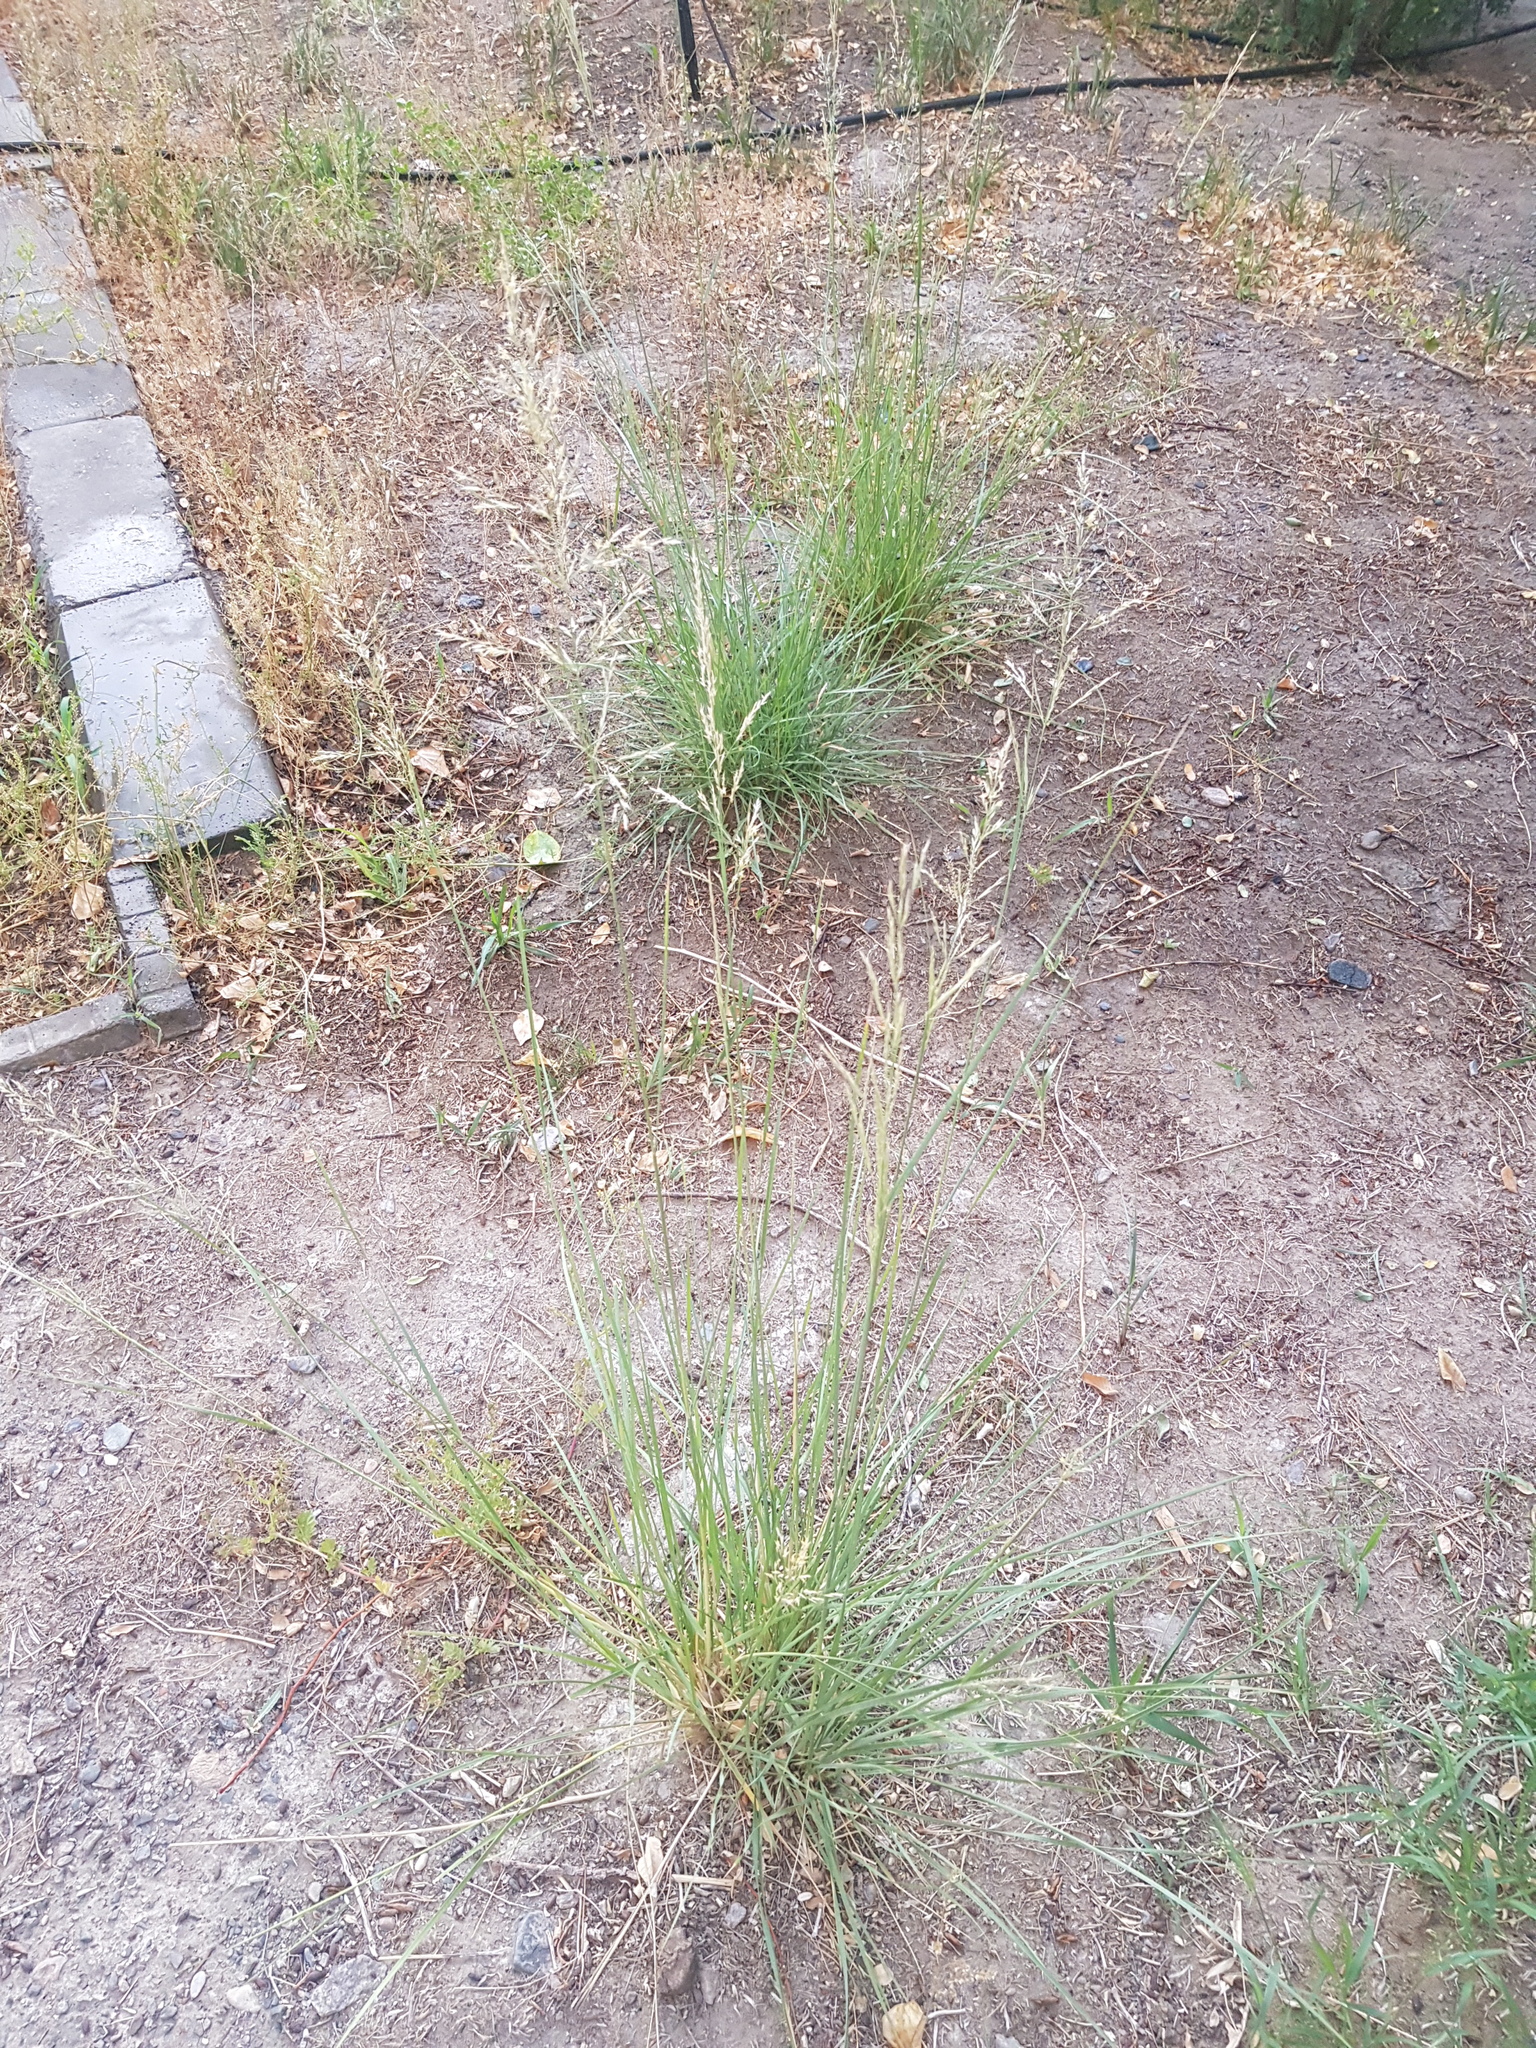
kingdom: Plantae
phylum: Tracheophyta
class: Liliopsida
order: Poales
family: Poaceae
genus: Neotrinia
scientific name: Neotrinia splendens
